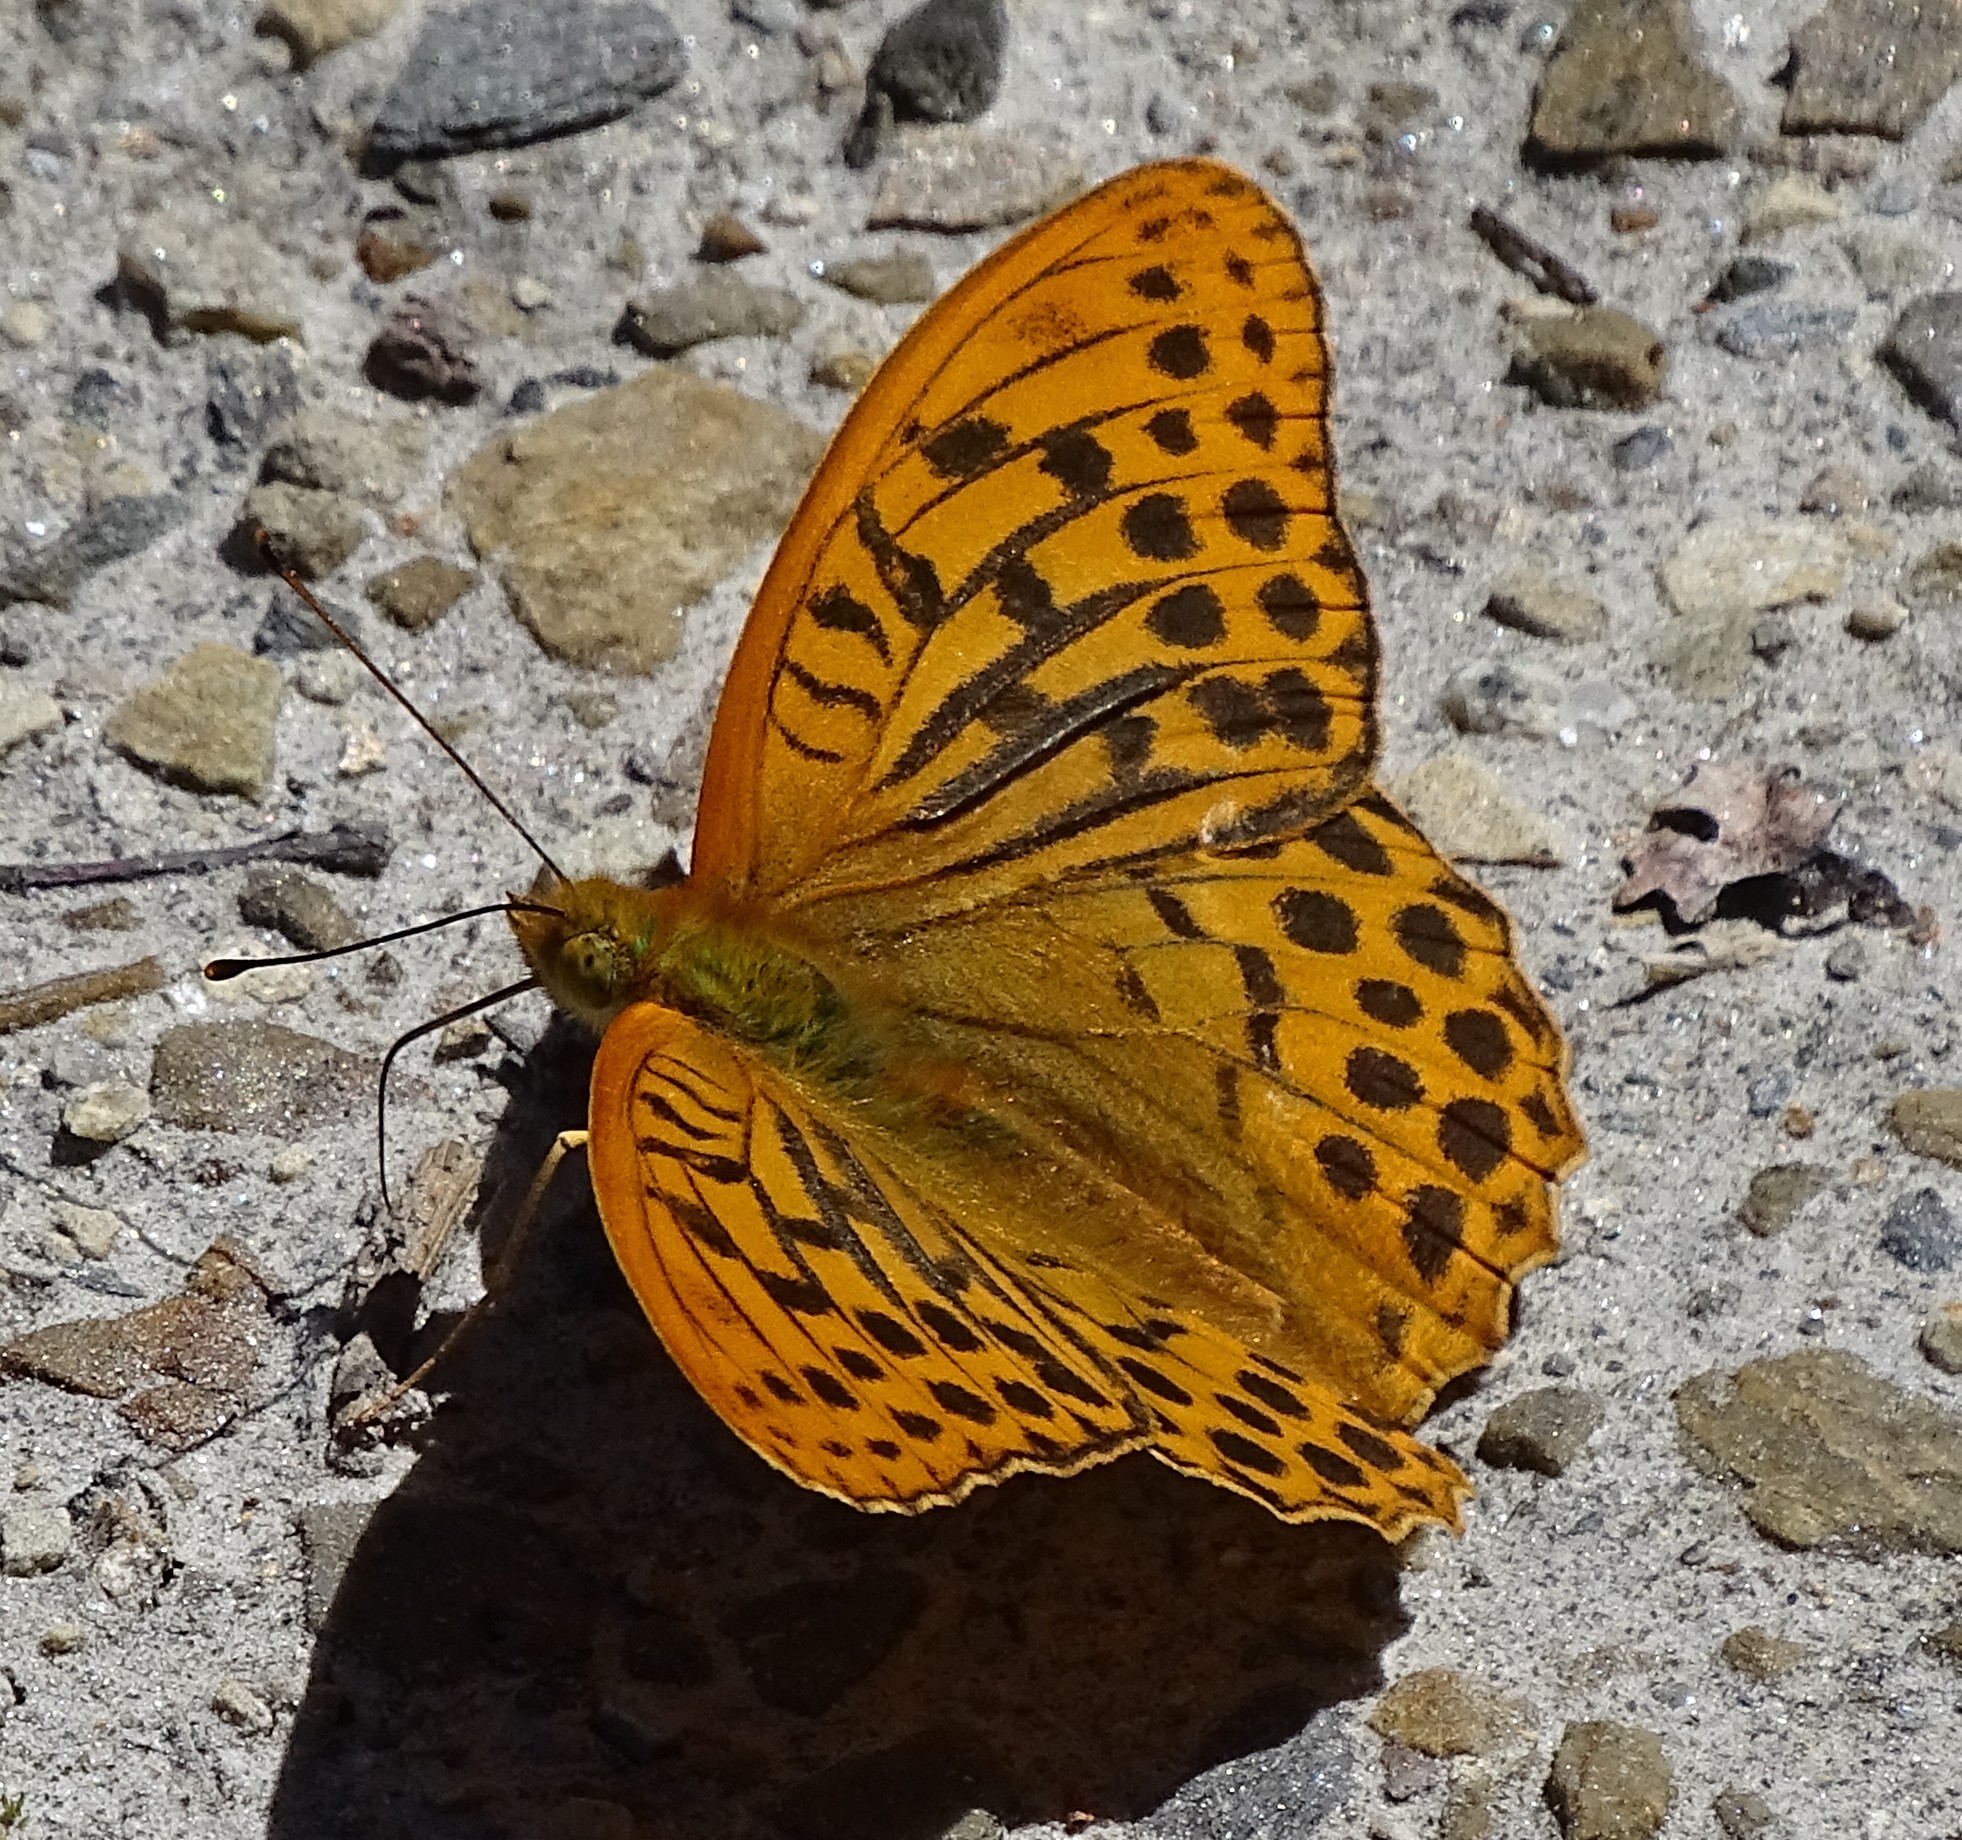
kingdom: Animalia
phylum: Arthropoda
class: Insecta
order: Lepidoptera
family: Nymphalidae
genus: Argynnis
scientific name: Argynnis paphia
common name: Silver-washed fritillary
